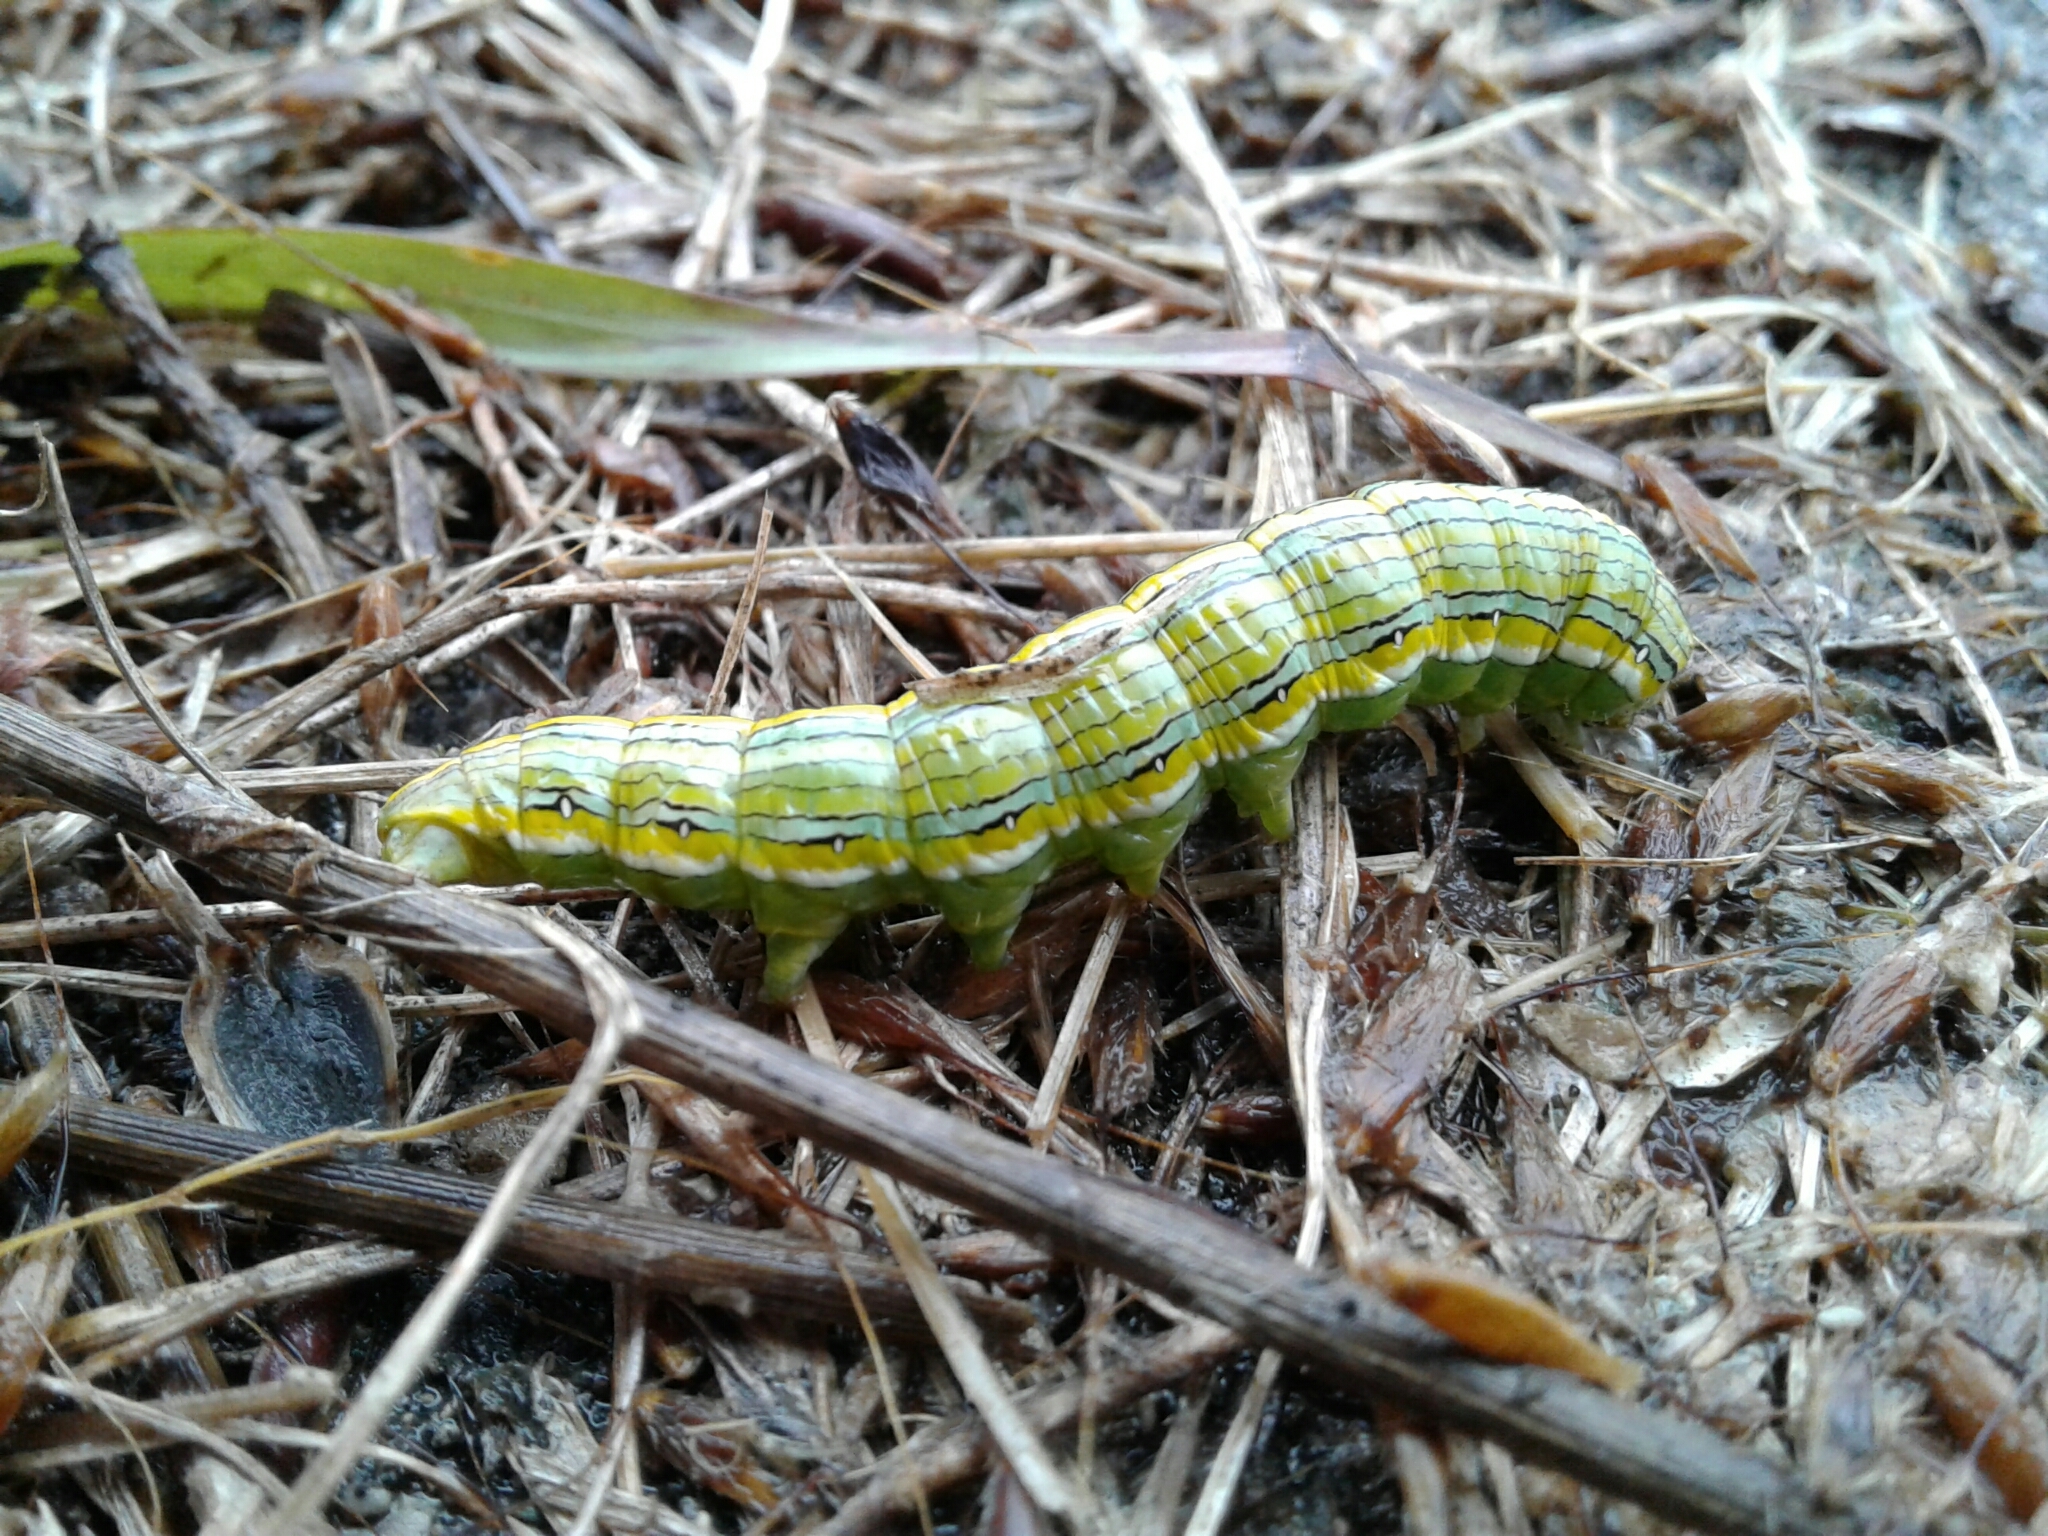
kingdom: Animalia
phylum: Arthropoda
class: Insecta
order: Lepidoptera
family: Noctuidae
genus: Cucullia
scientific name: Cucullia asteroides
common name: Asteroid moth
